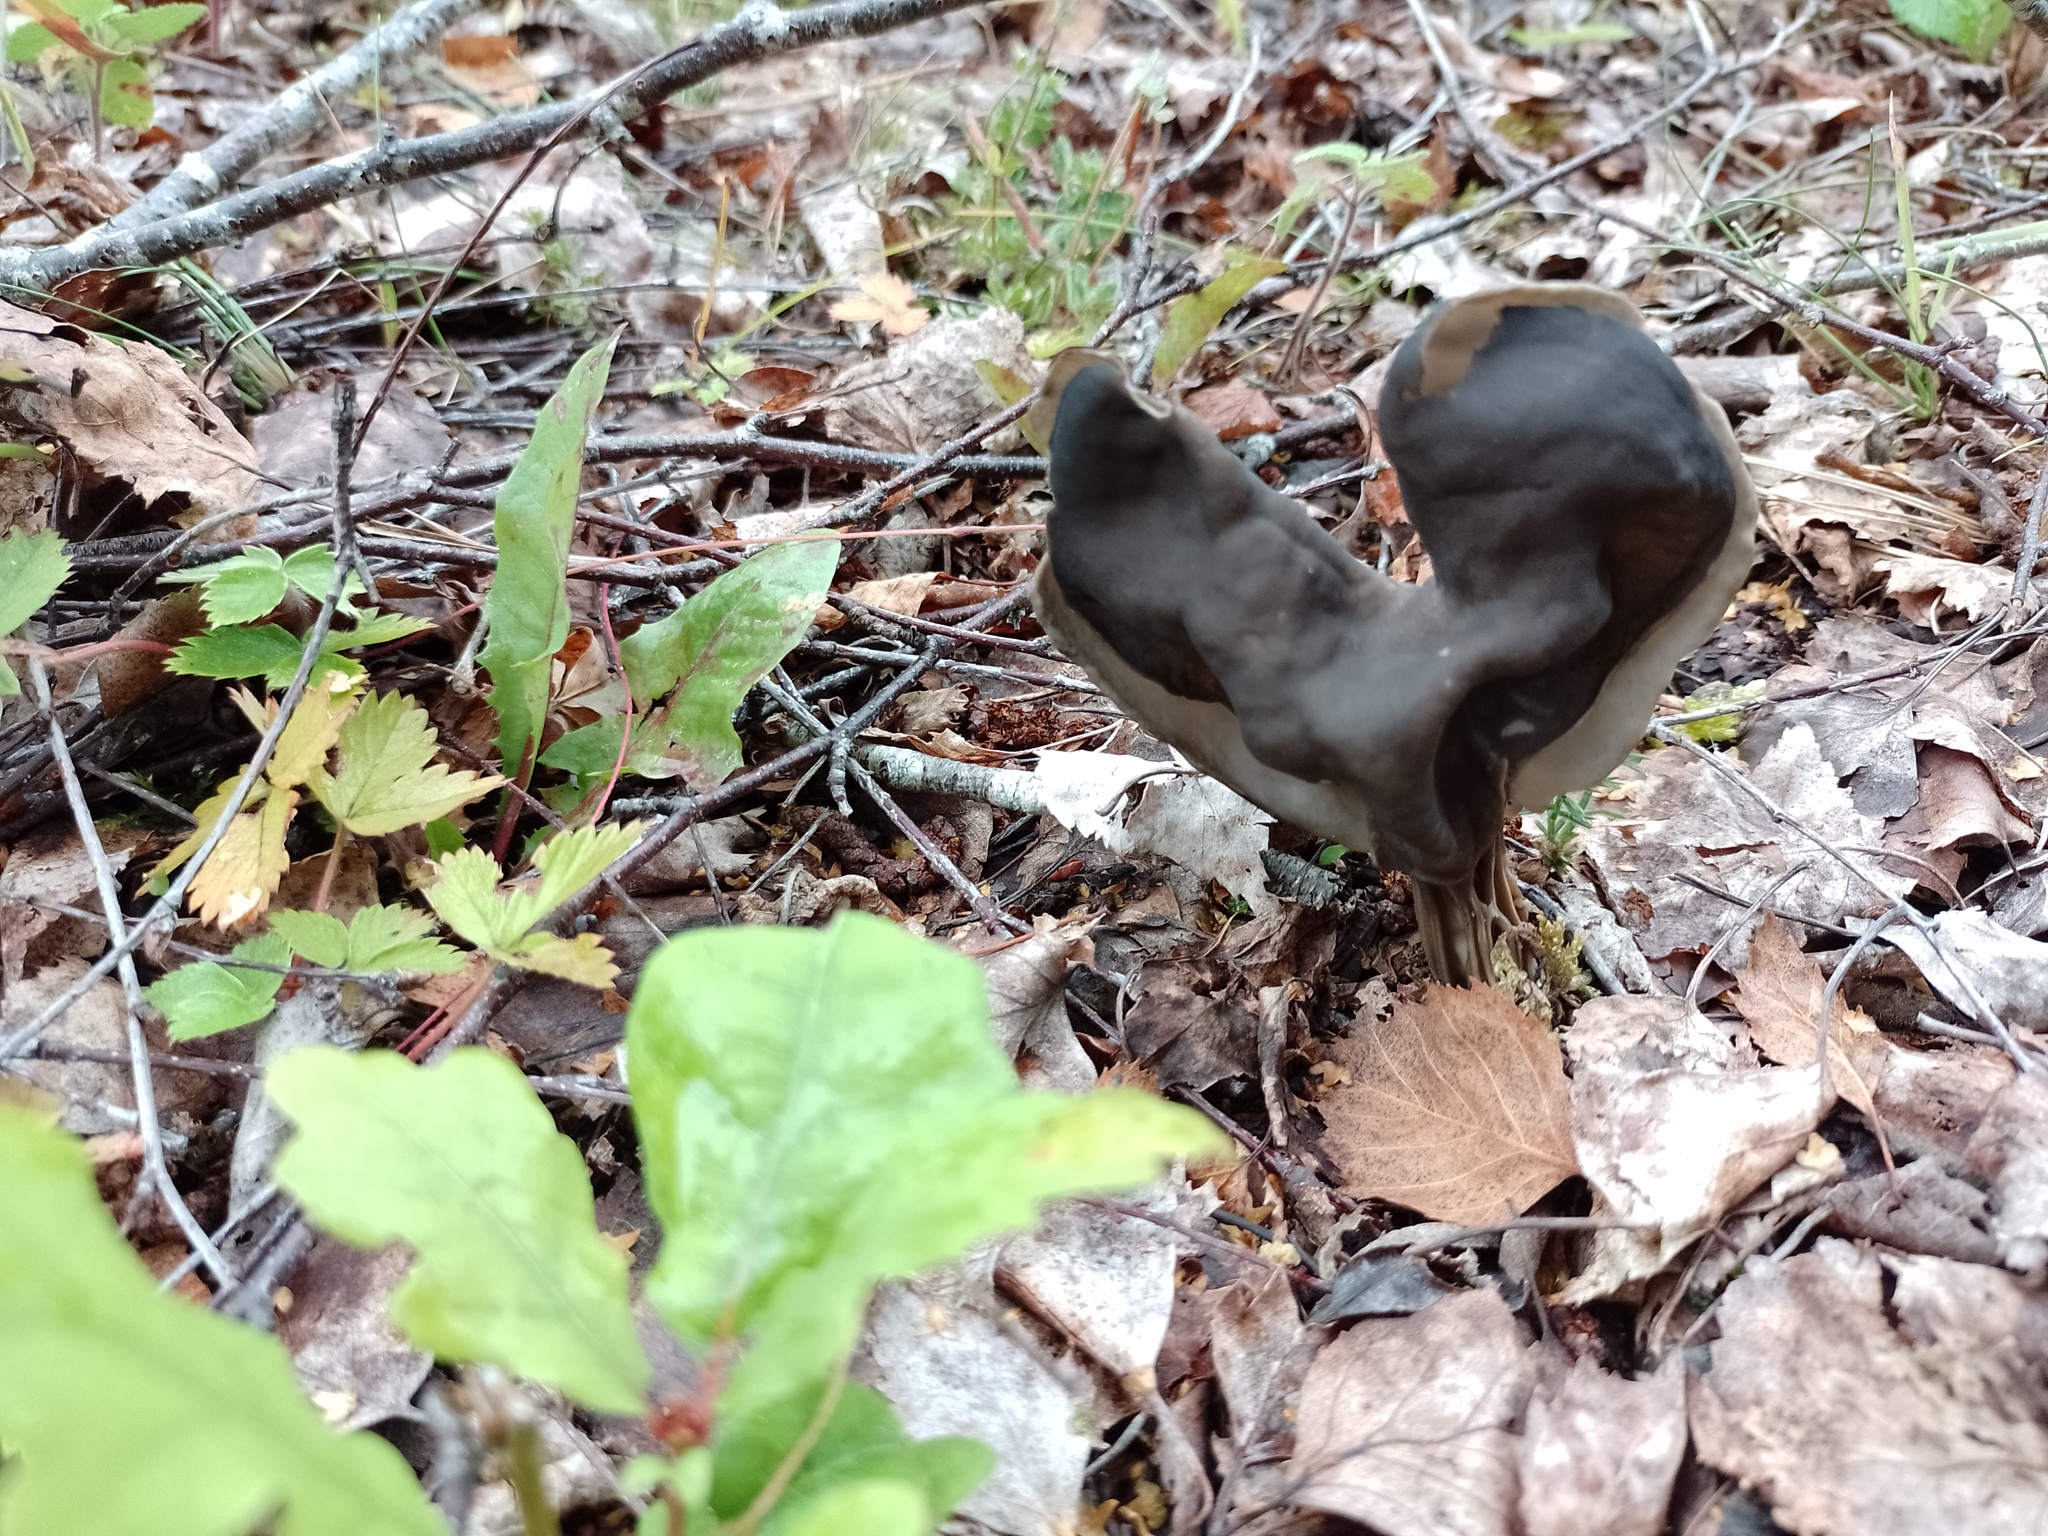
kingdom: Fungi
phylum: Ascomycota
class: Pezizomycetes
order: Pezizales
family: Helvellaceae
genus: Helvella
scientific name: Helvella lacunosa
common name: Elfin saddle
